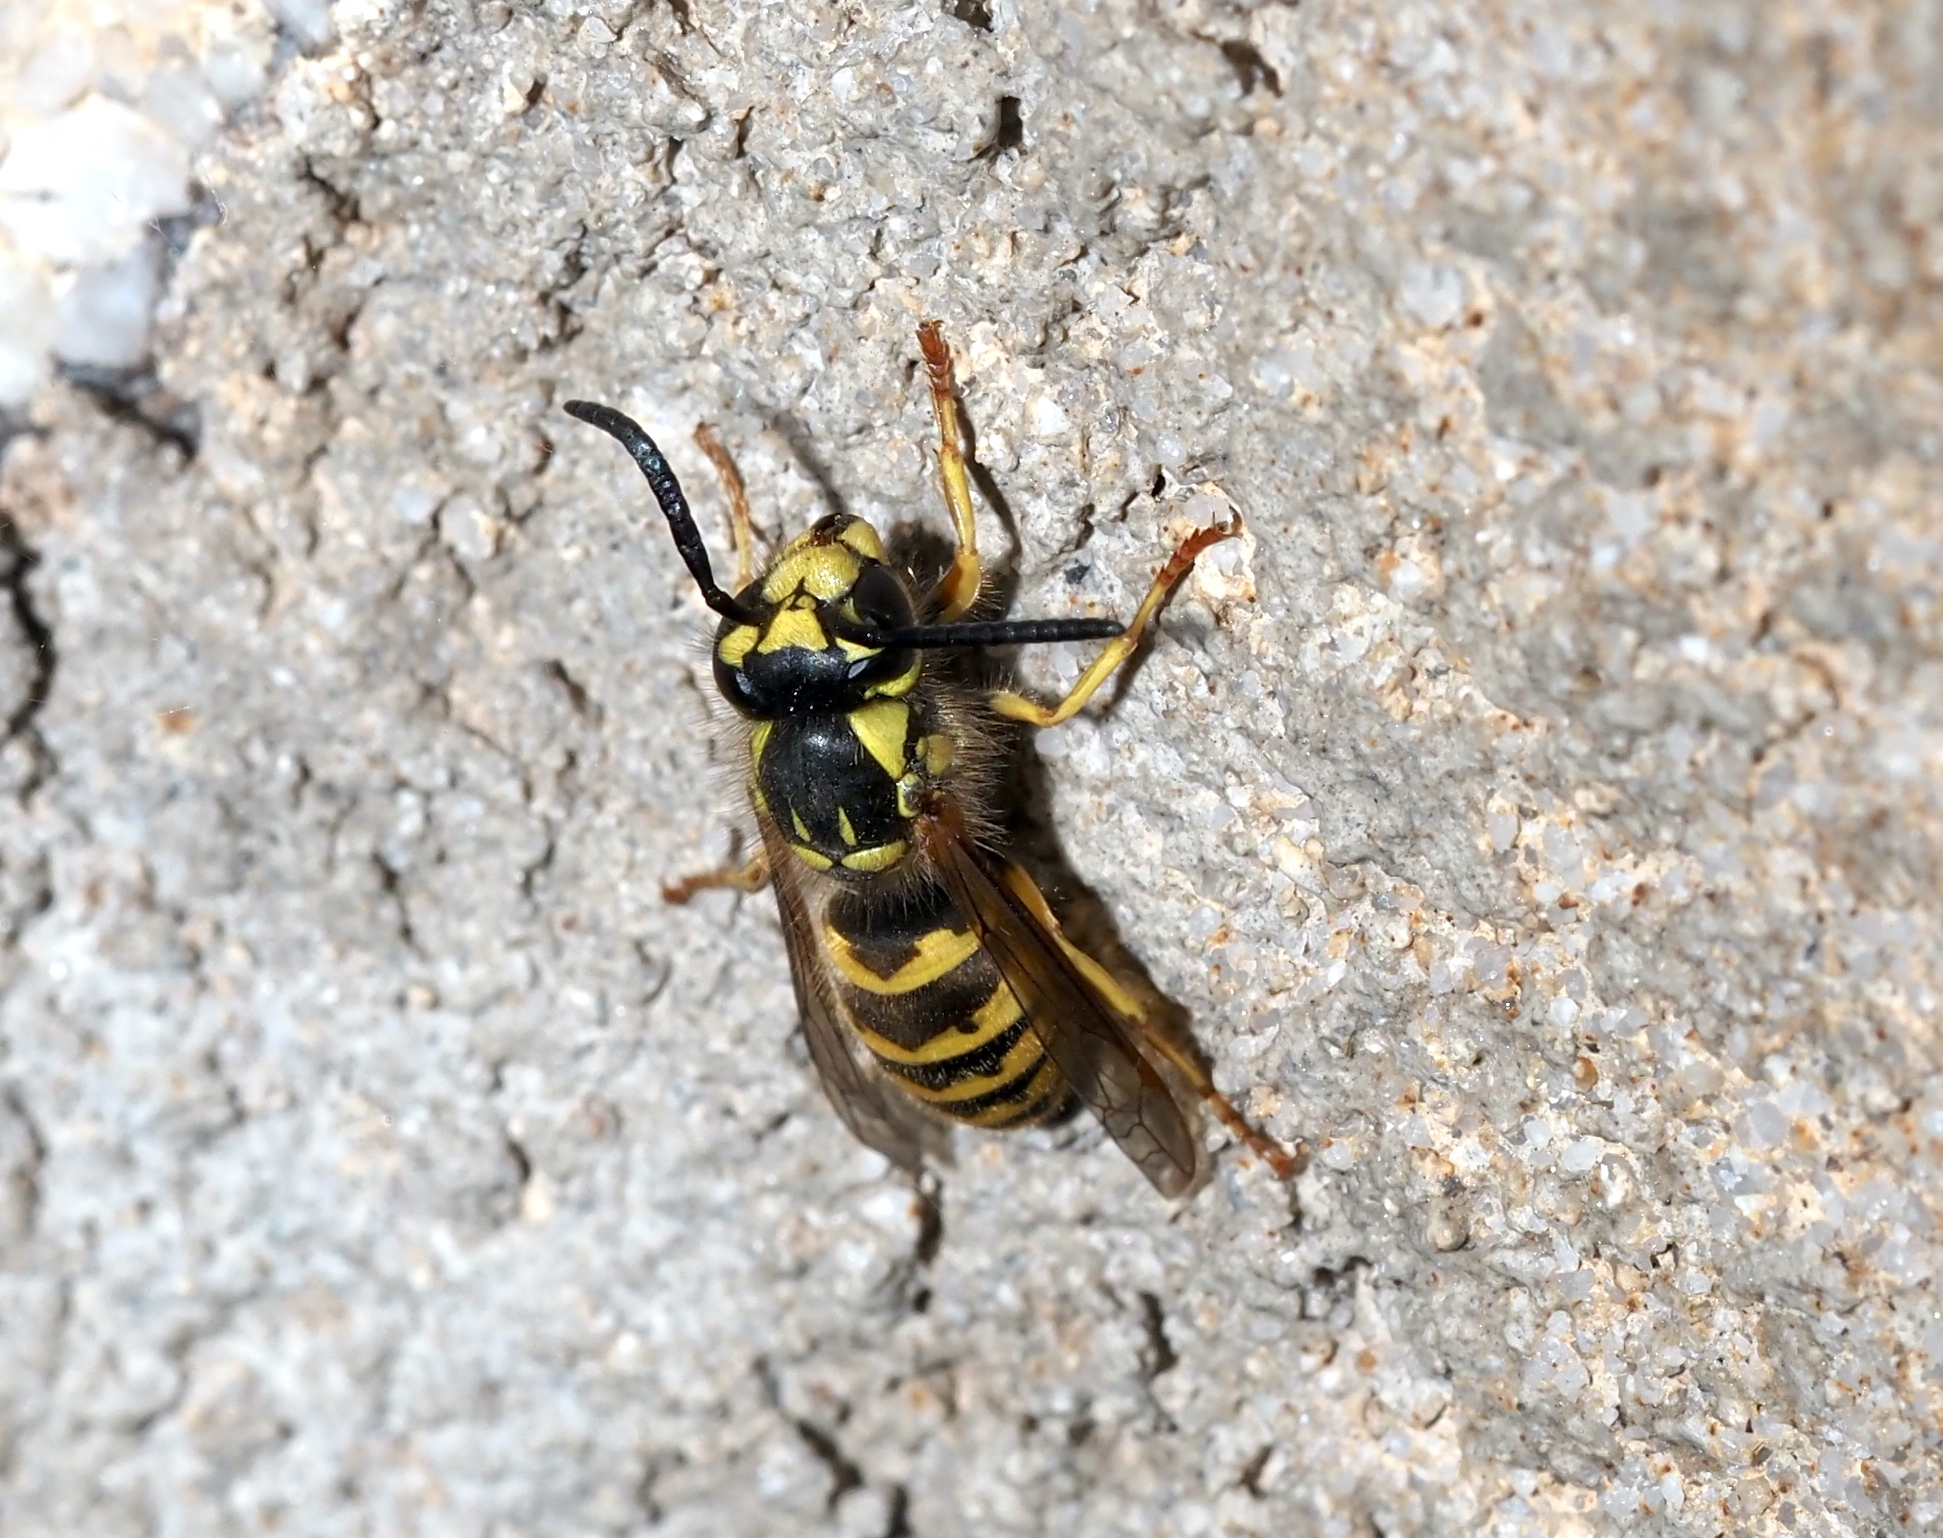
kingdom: Animalia
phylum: Arthropoda
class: Insecta
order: Hymenoptera
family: Vespidae
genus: Vespula
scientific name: Vespula flavopilosa
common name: Downy yellowjacket
